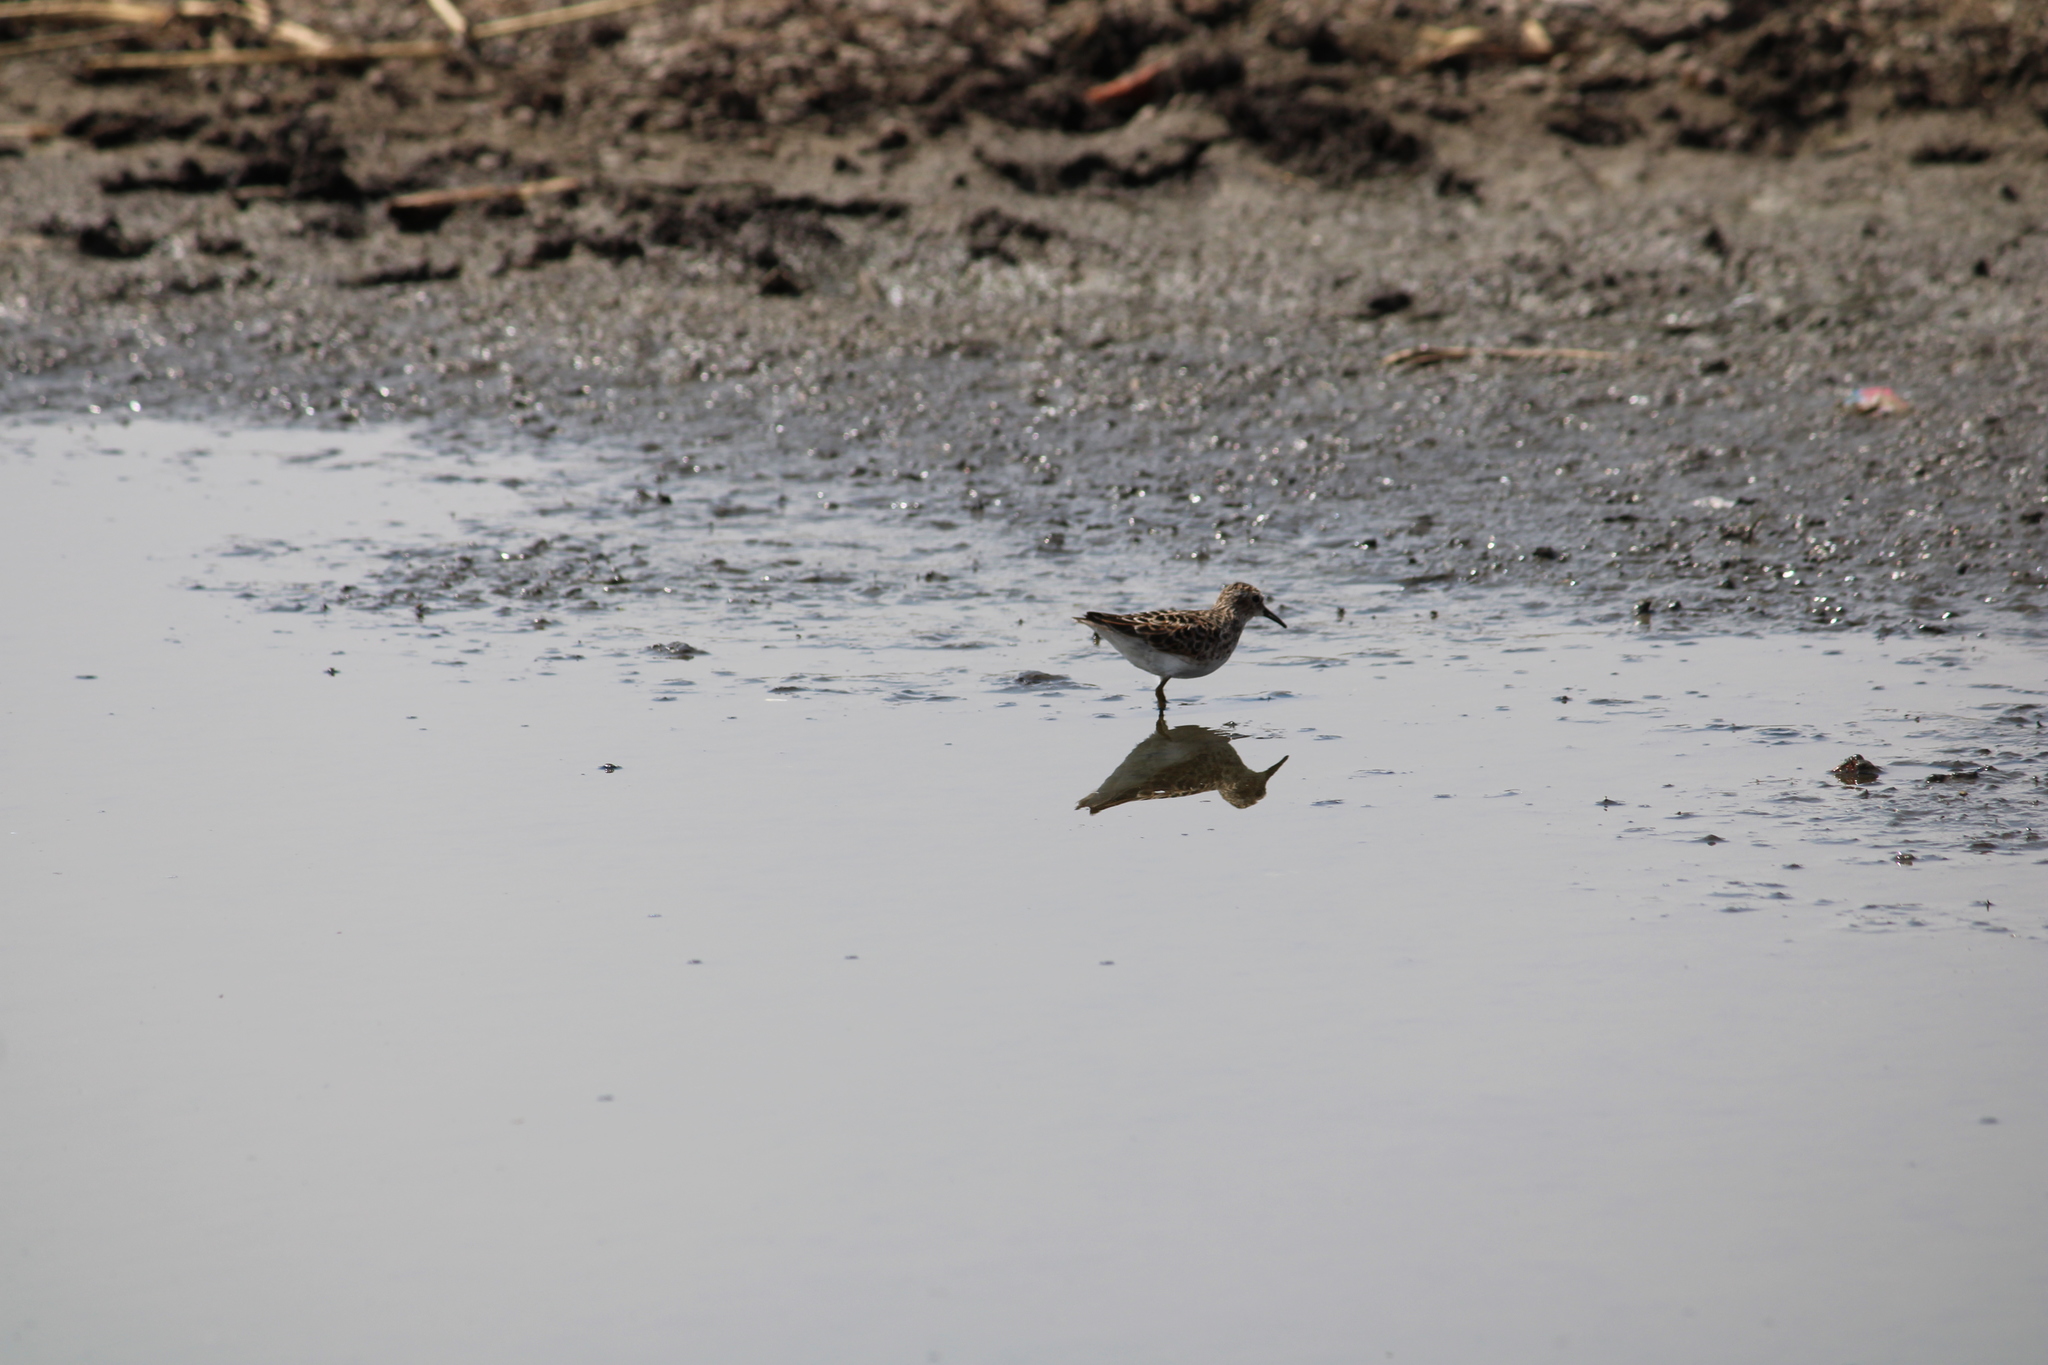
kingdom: Animalia
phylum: Chordata
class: Aves
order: Charadriiformes
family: Scolopacidae
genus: Calidris
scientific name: Calidris minutilla
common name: Least sandpiper
